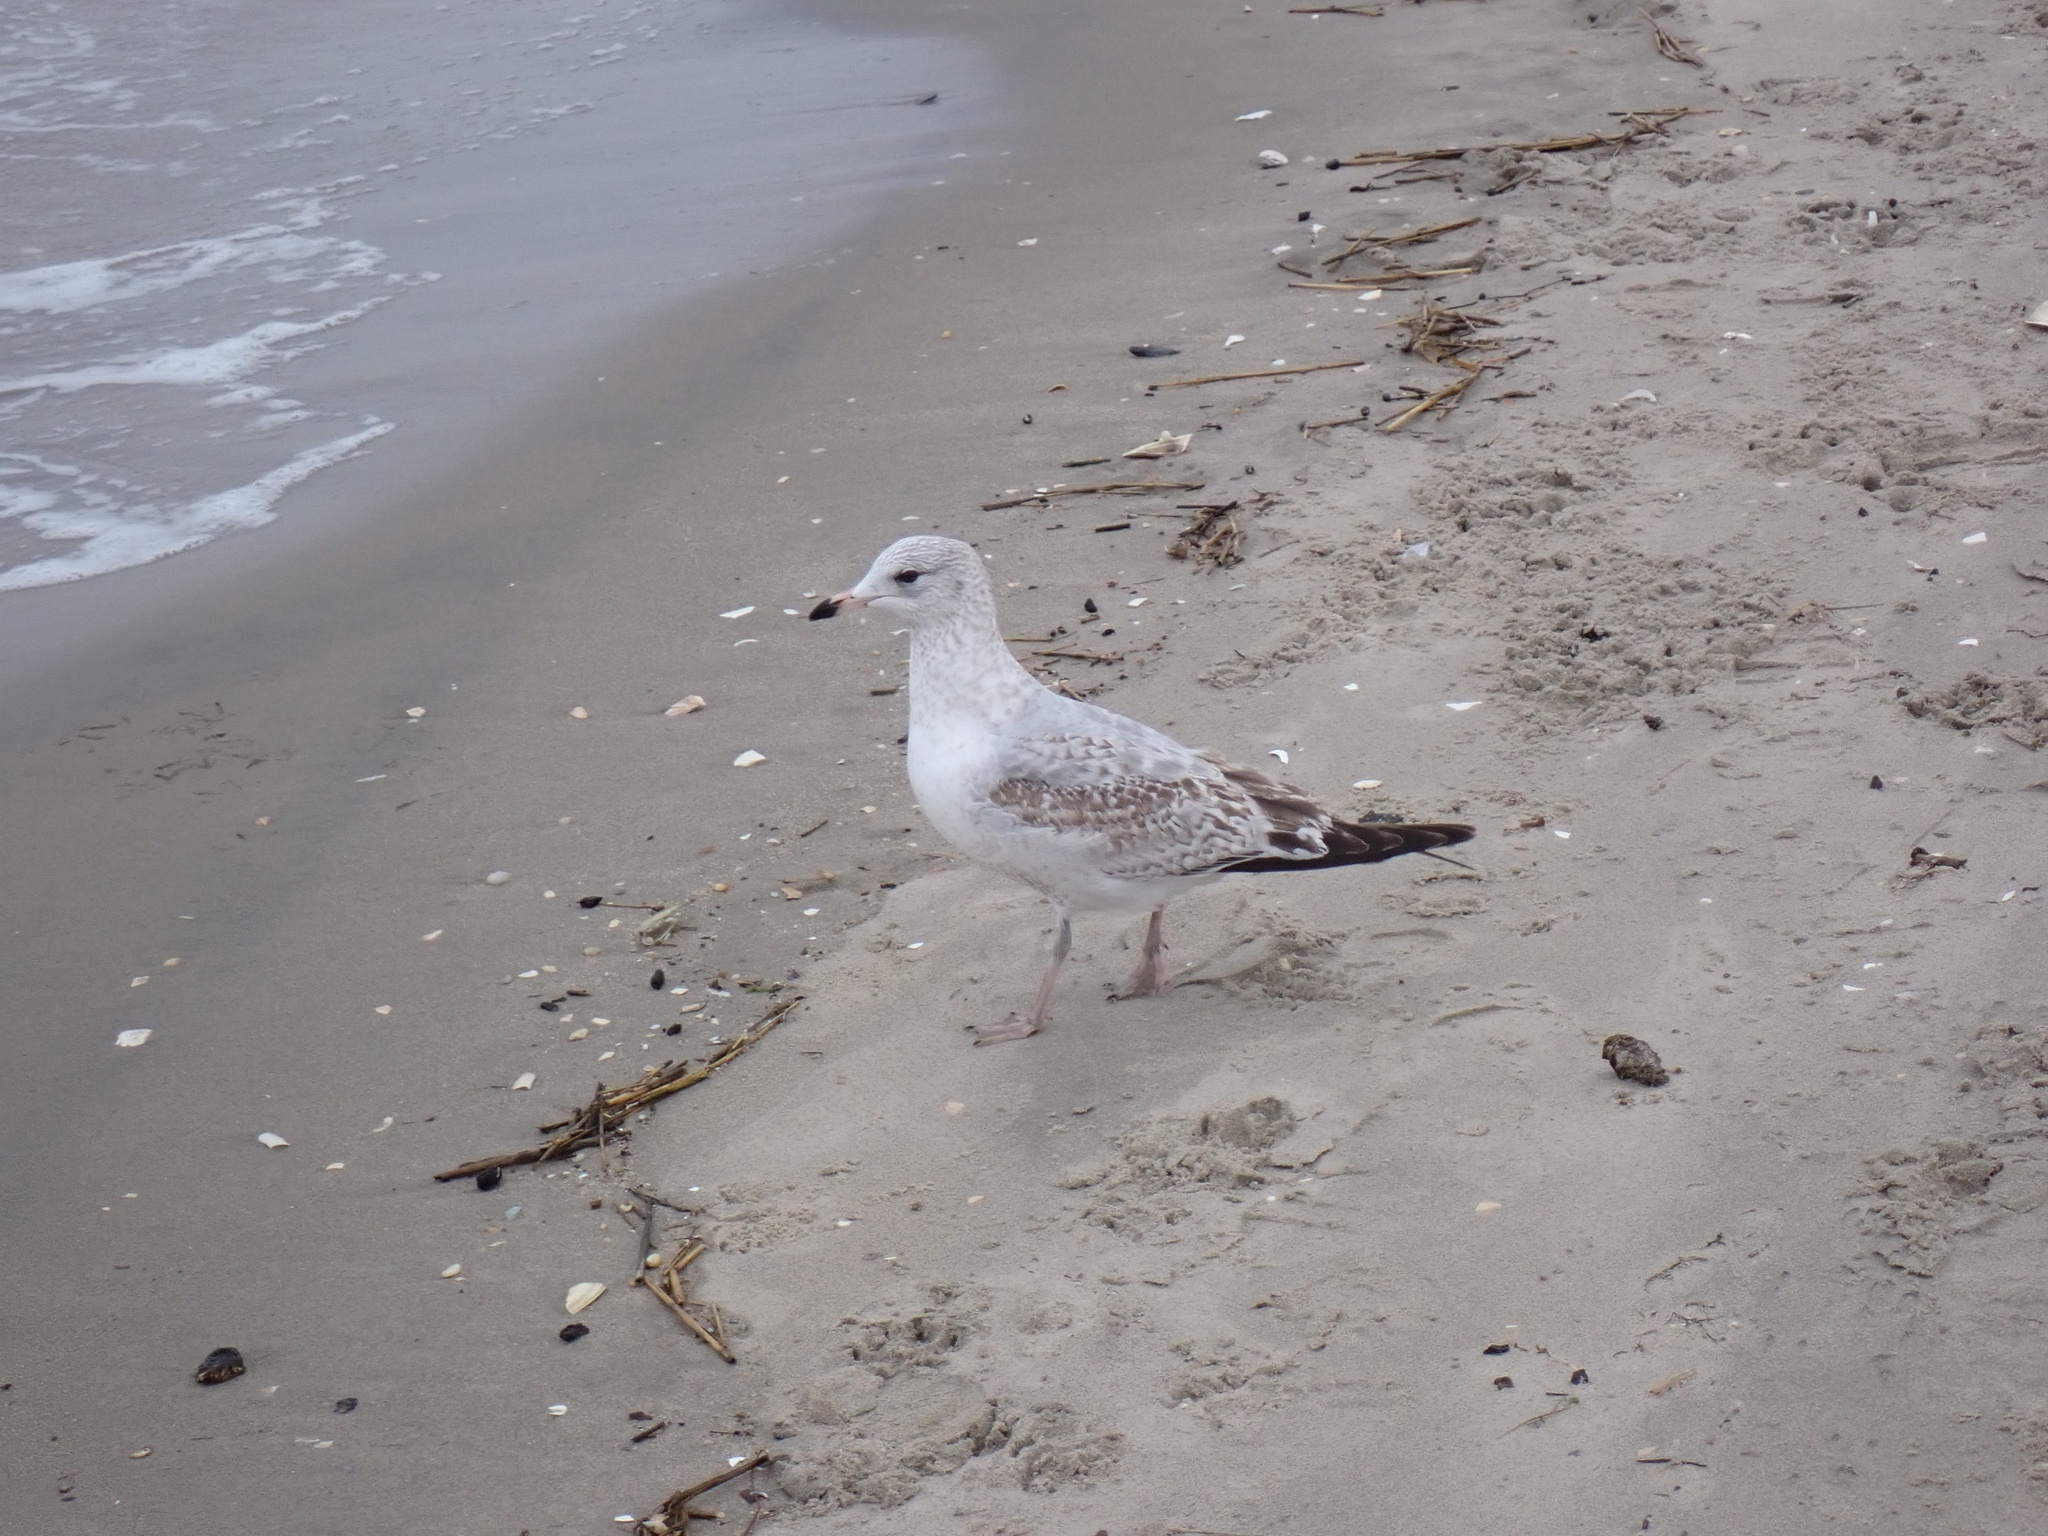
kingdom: Animalia
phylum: Chordata
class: Aves
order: Charadriiformes
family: Laridae
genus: Larus
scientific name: Larus delawarensis
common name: Ring-billed gull
